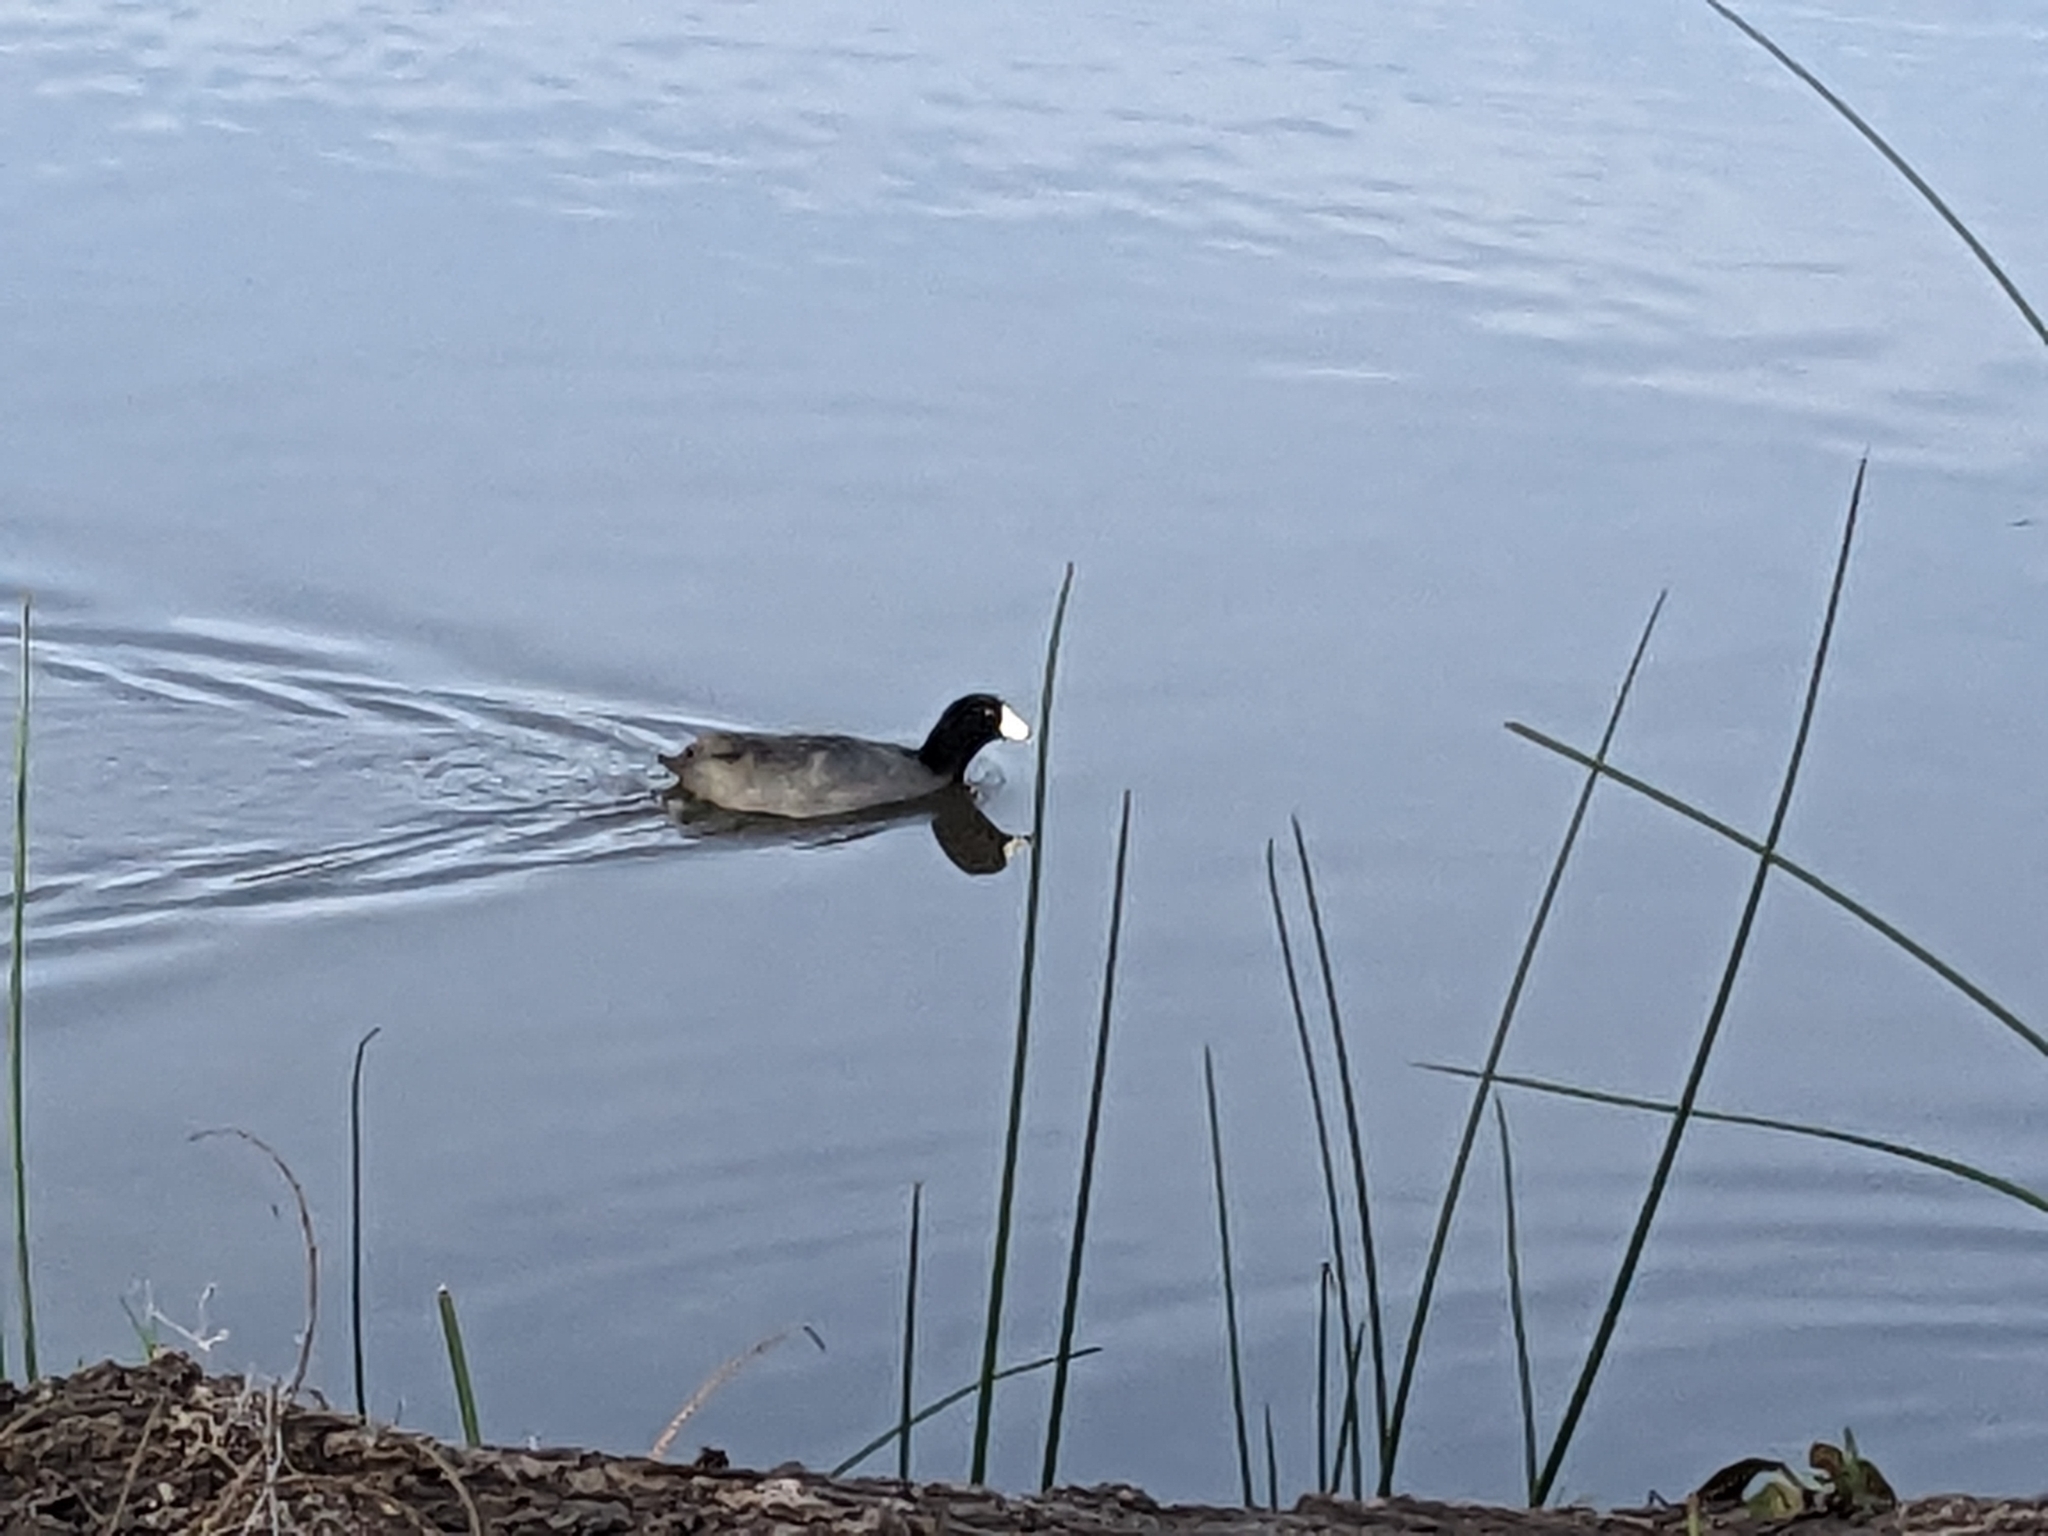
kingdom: Animalia
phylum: Chordata
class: Aves
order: Gruiformes
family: Rallidae
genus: Fulica
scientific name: Fulica americana
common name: American coot
